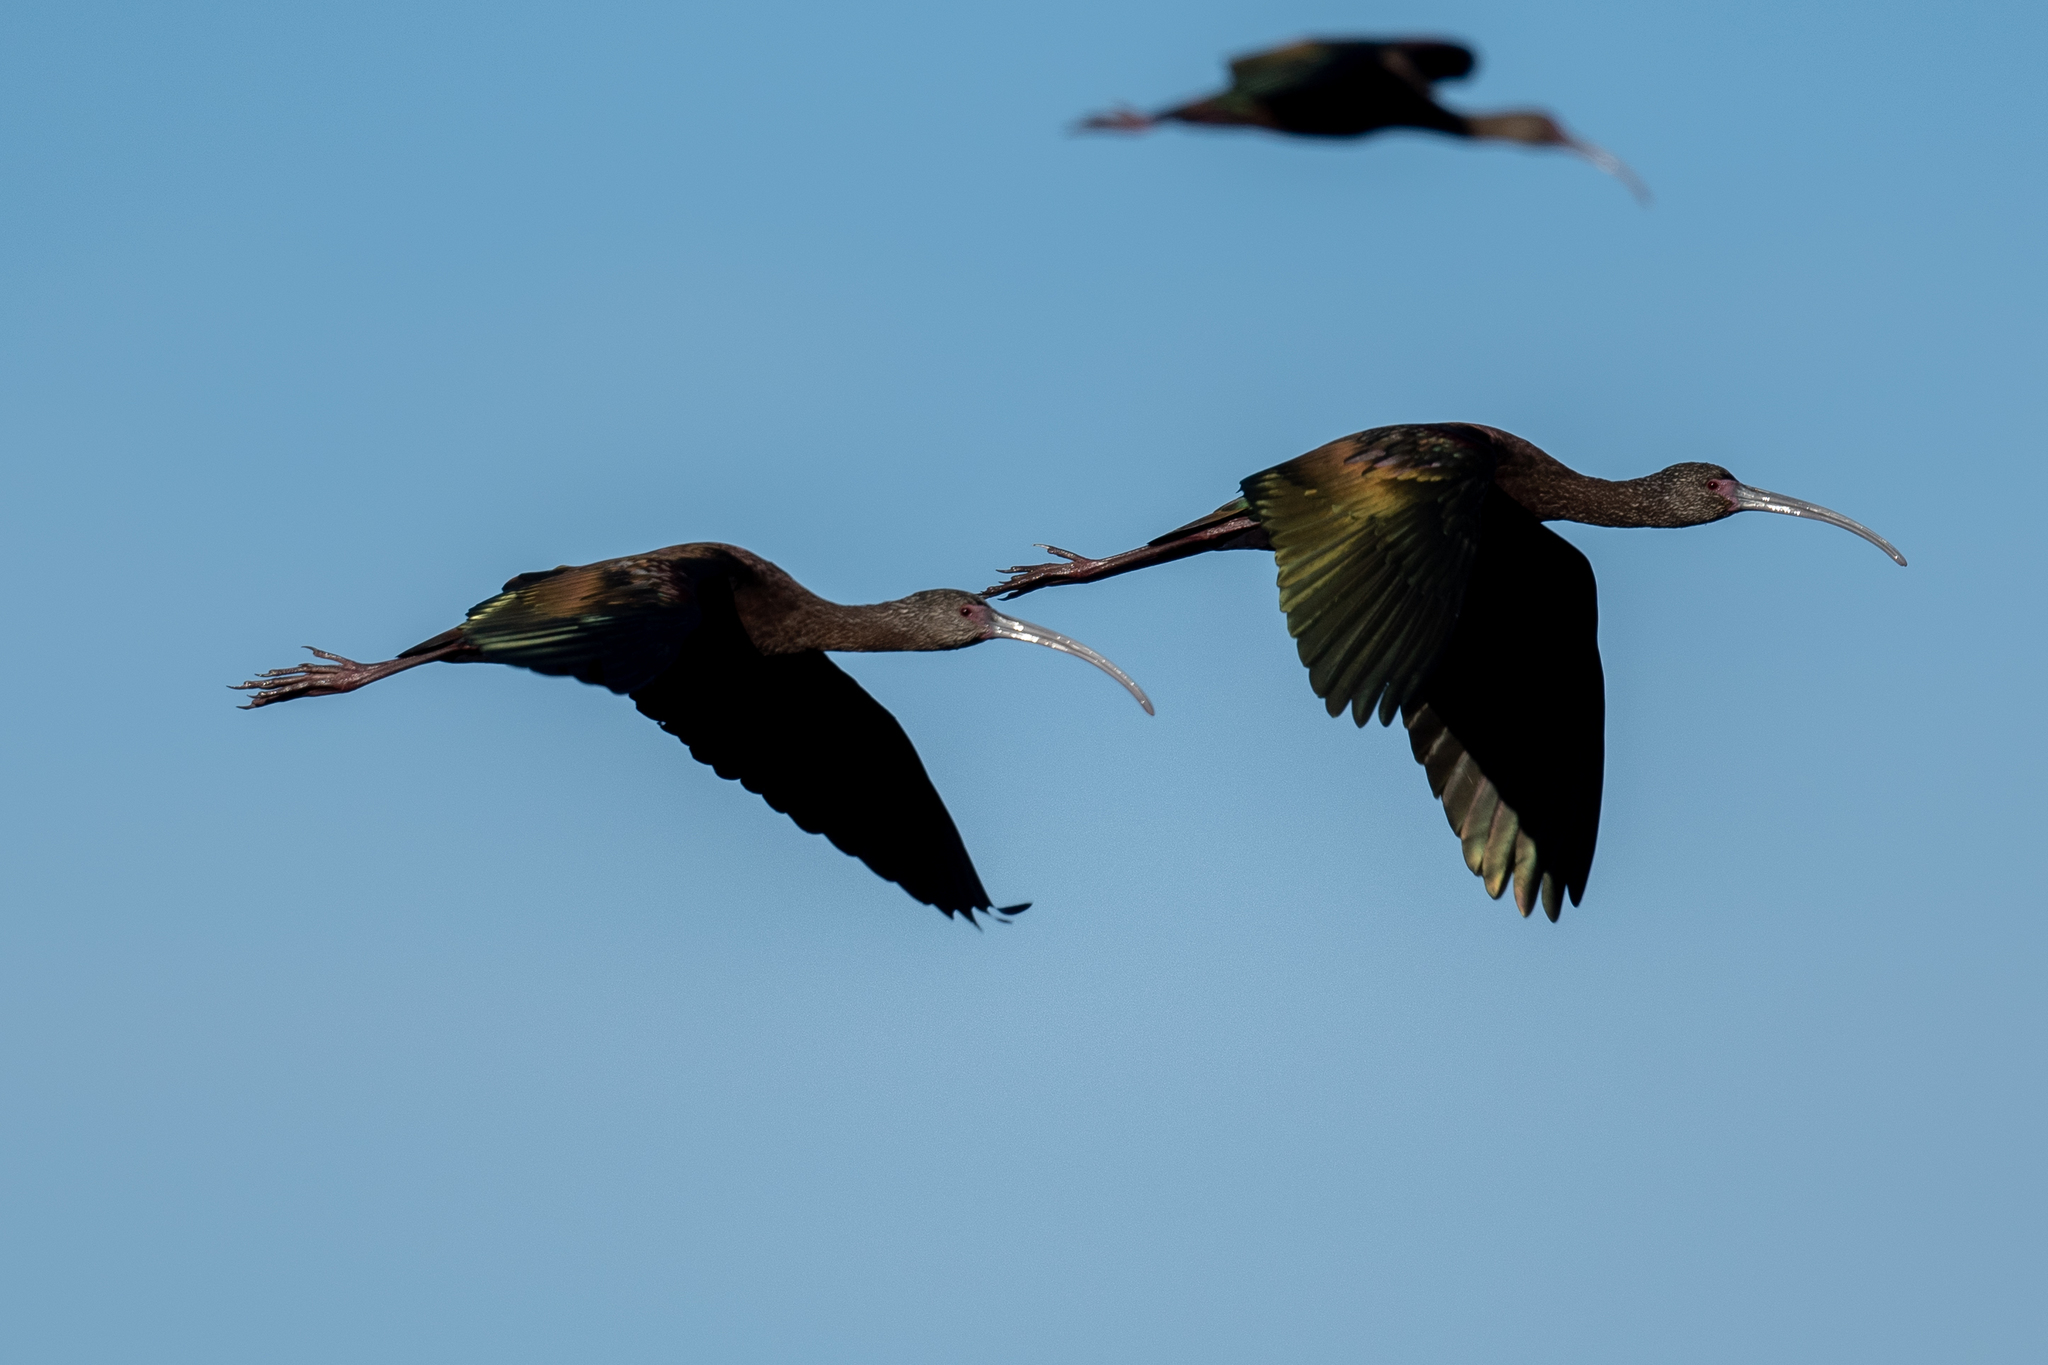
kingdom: Animalia
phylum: Chordata
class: Aves
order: Pelecaniformes
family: Threskiornithidae
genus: Plegadis
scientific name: Plegadis chihi
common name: White-faced ibis
